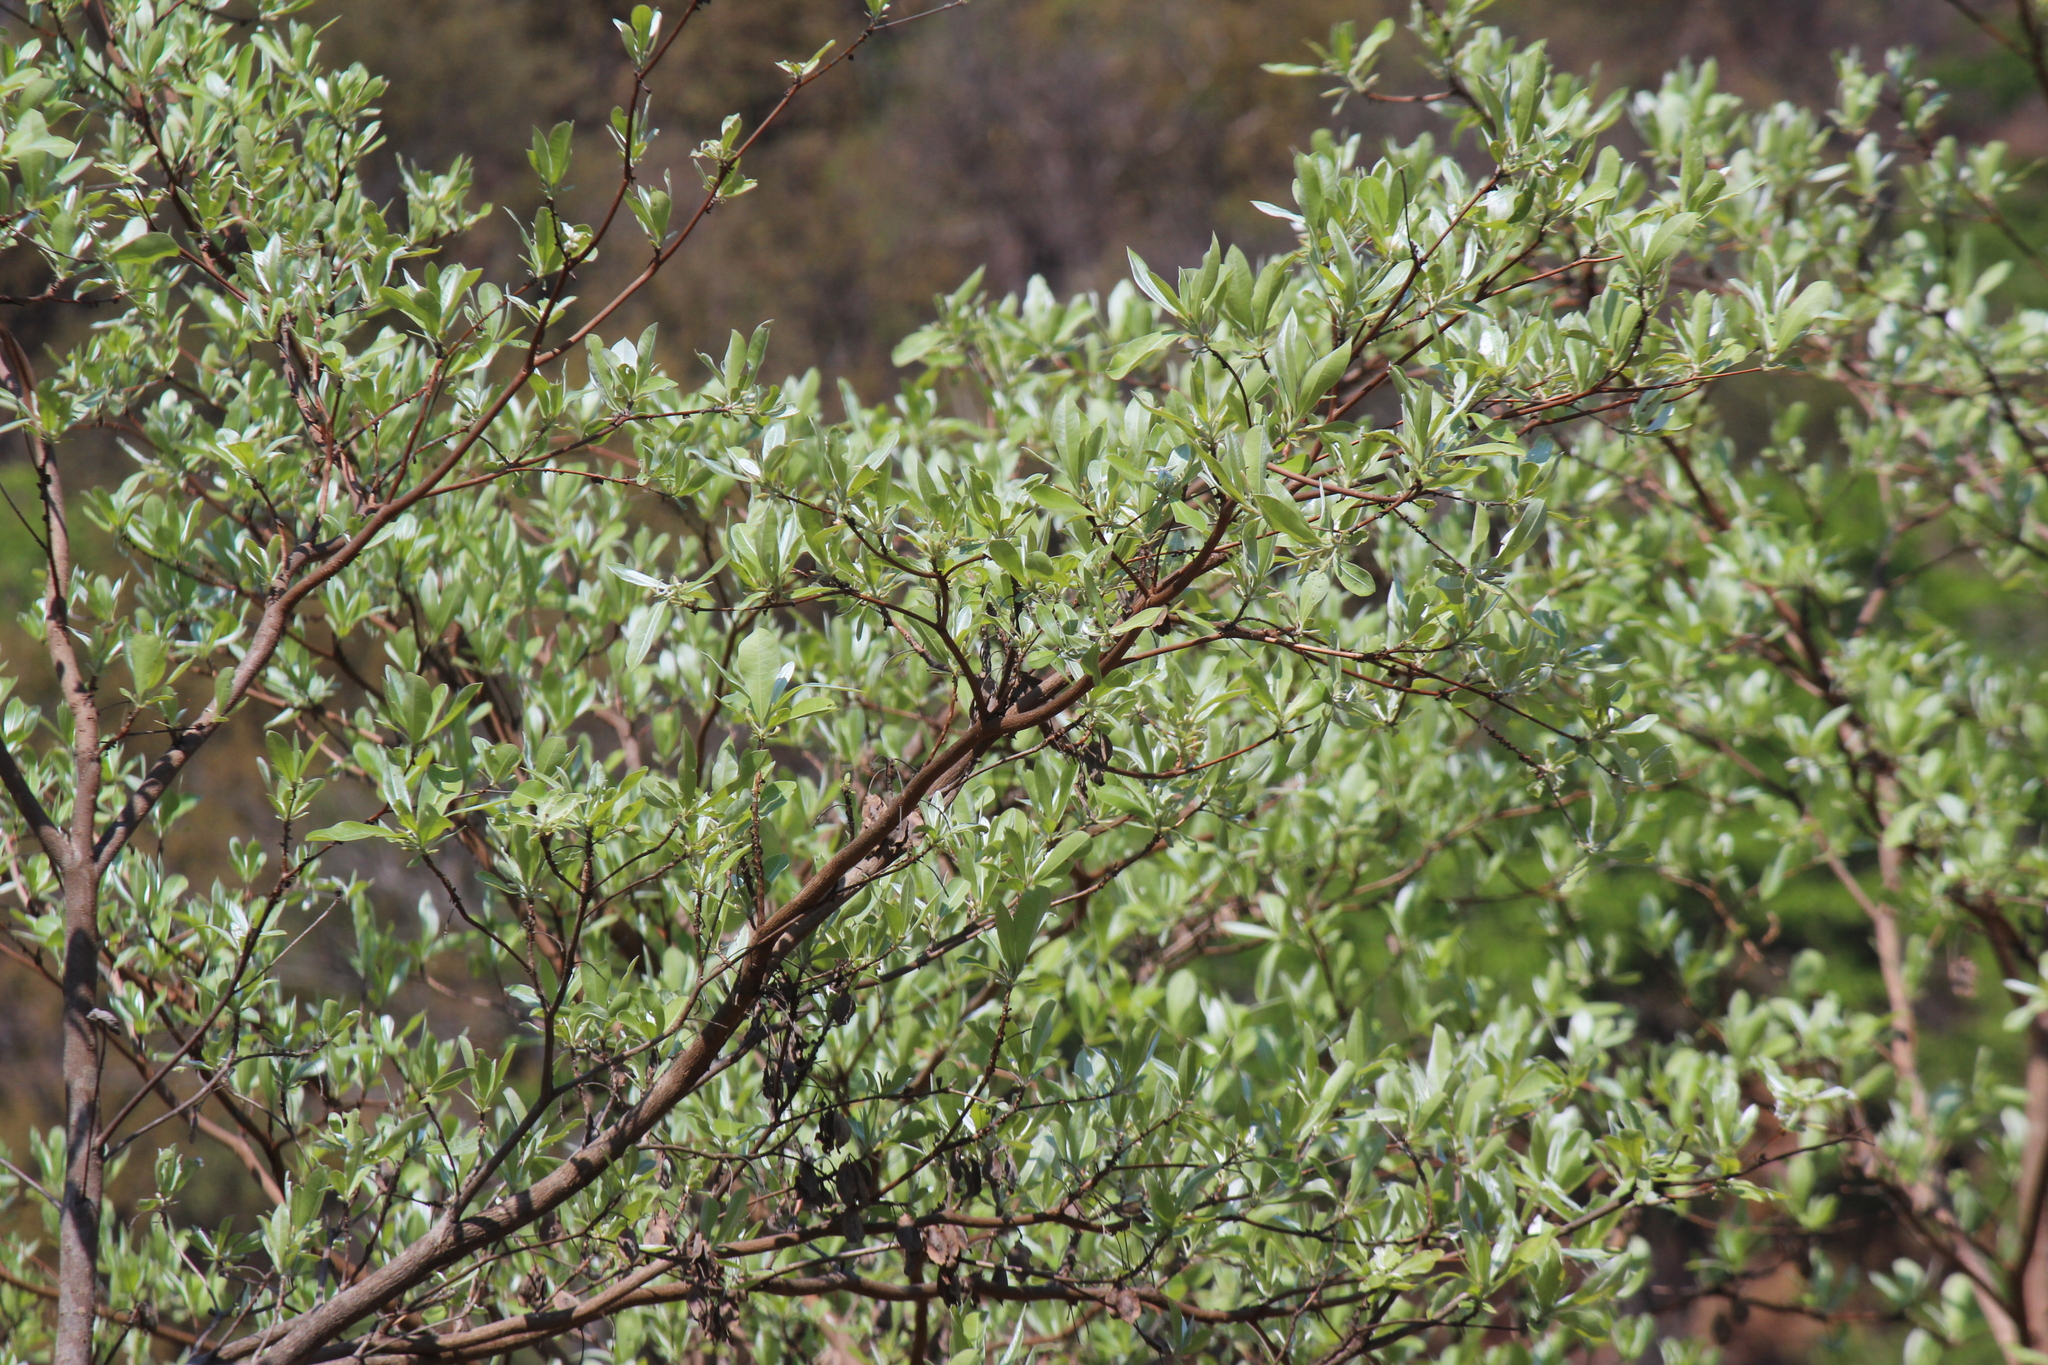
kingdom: Plantae
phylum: Tracheophyta
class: Magnoliopsida
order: Myrtales
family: Combretaceae
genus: Terminalia
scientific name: Terminalia sericea
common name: Clusterleaf
